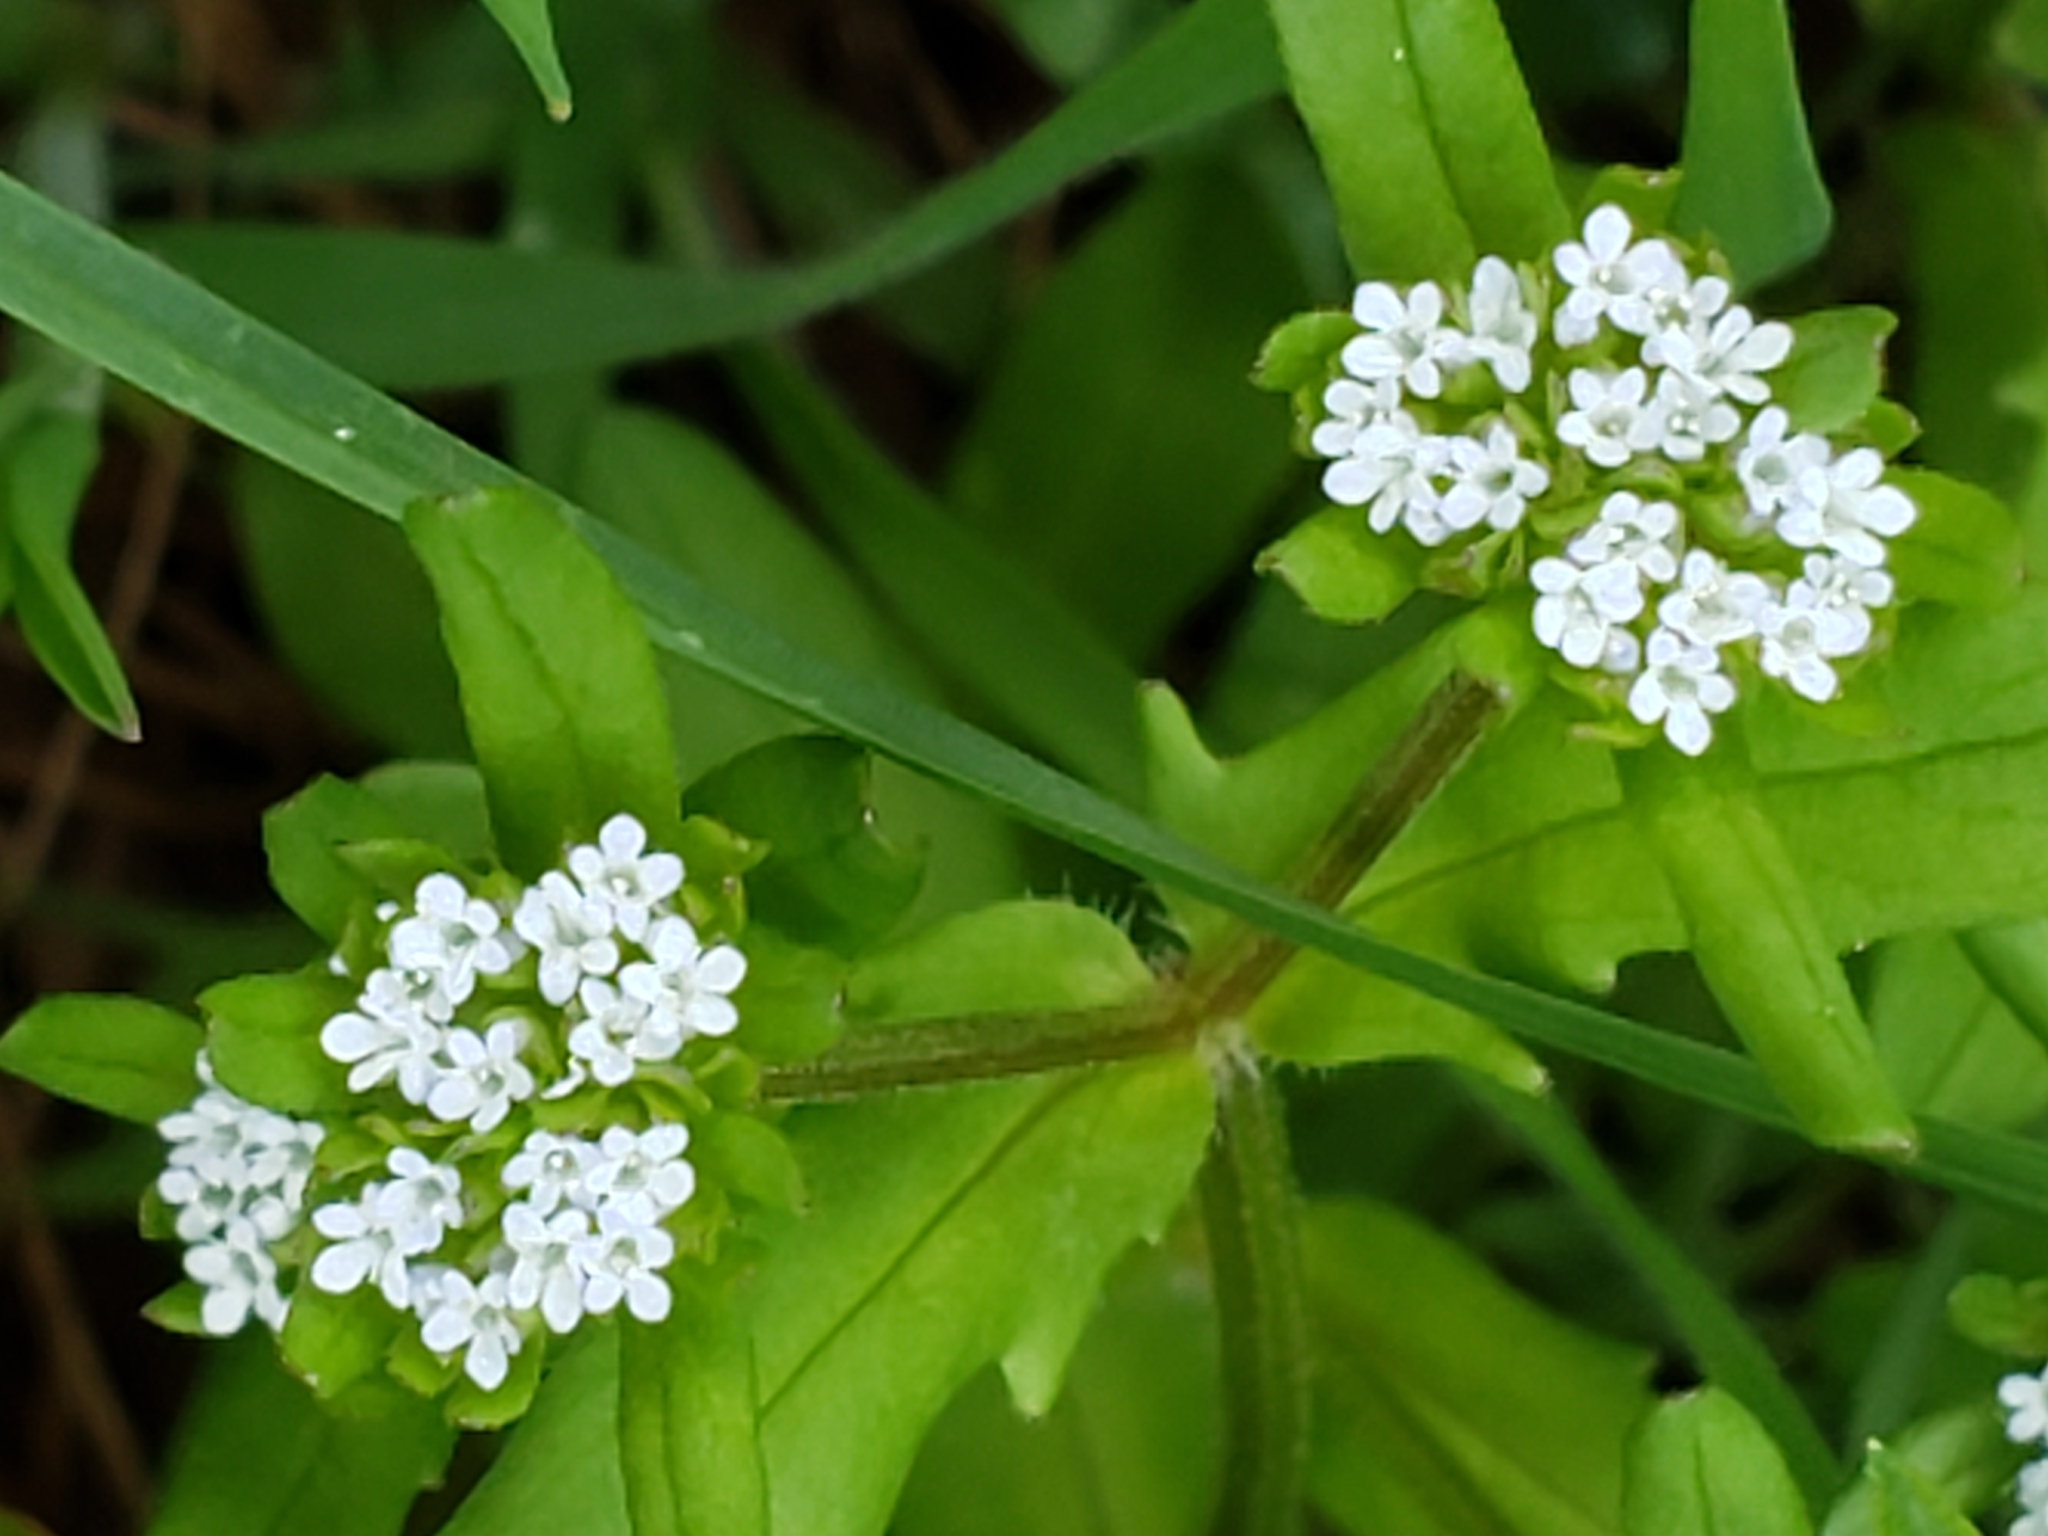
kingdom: Plantae
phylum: Tracheophyta
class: Magnoliopsida
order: Dipsacales
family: Caprifoliaceae
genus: Valerianella
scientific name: Valerianella locusta
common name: Common cornsalad
